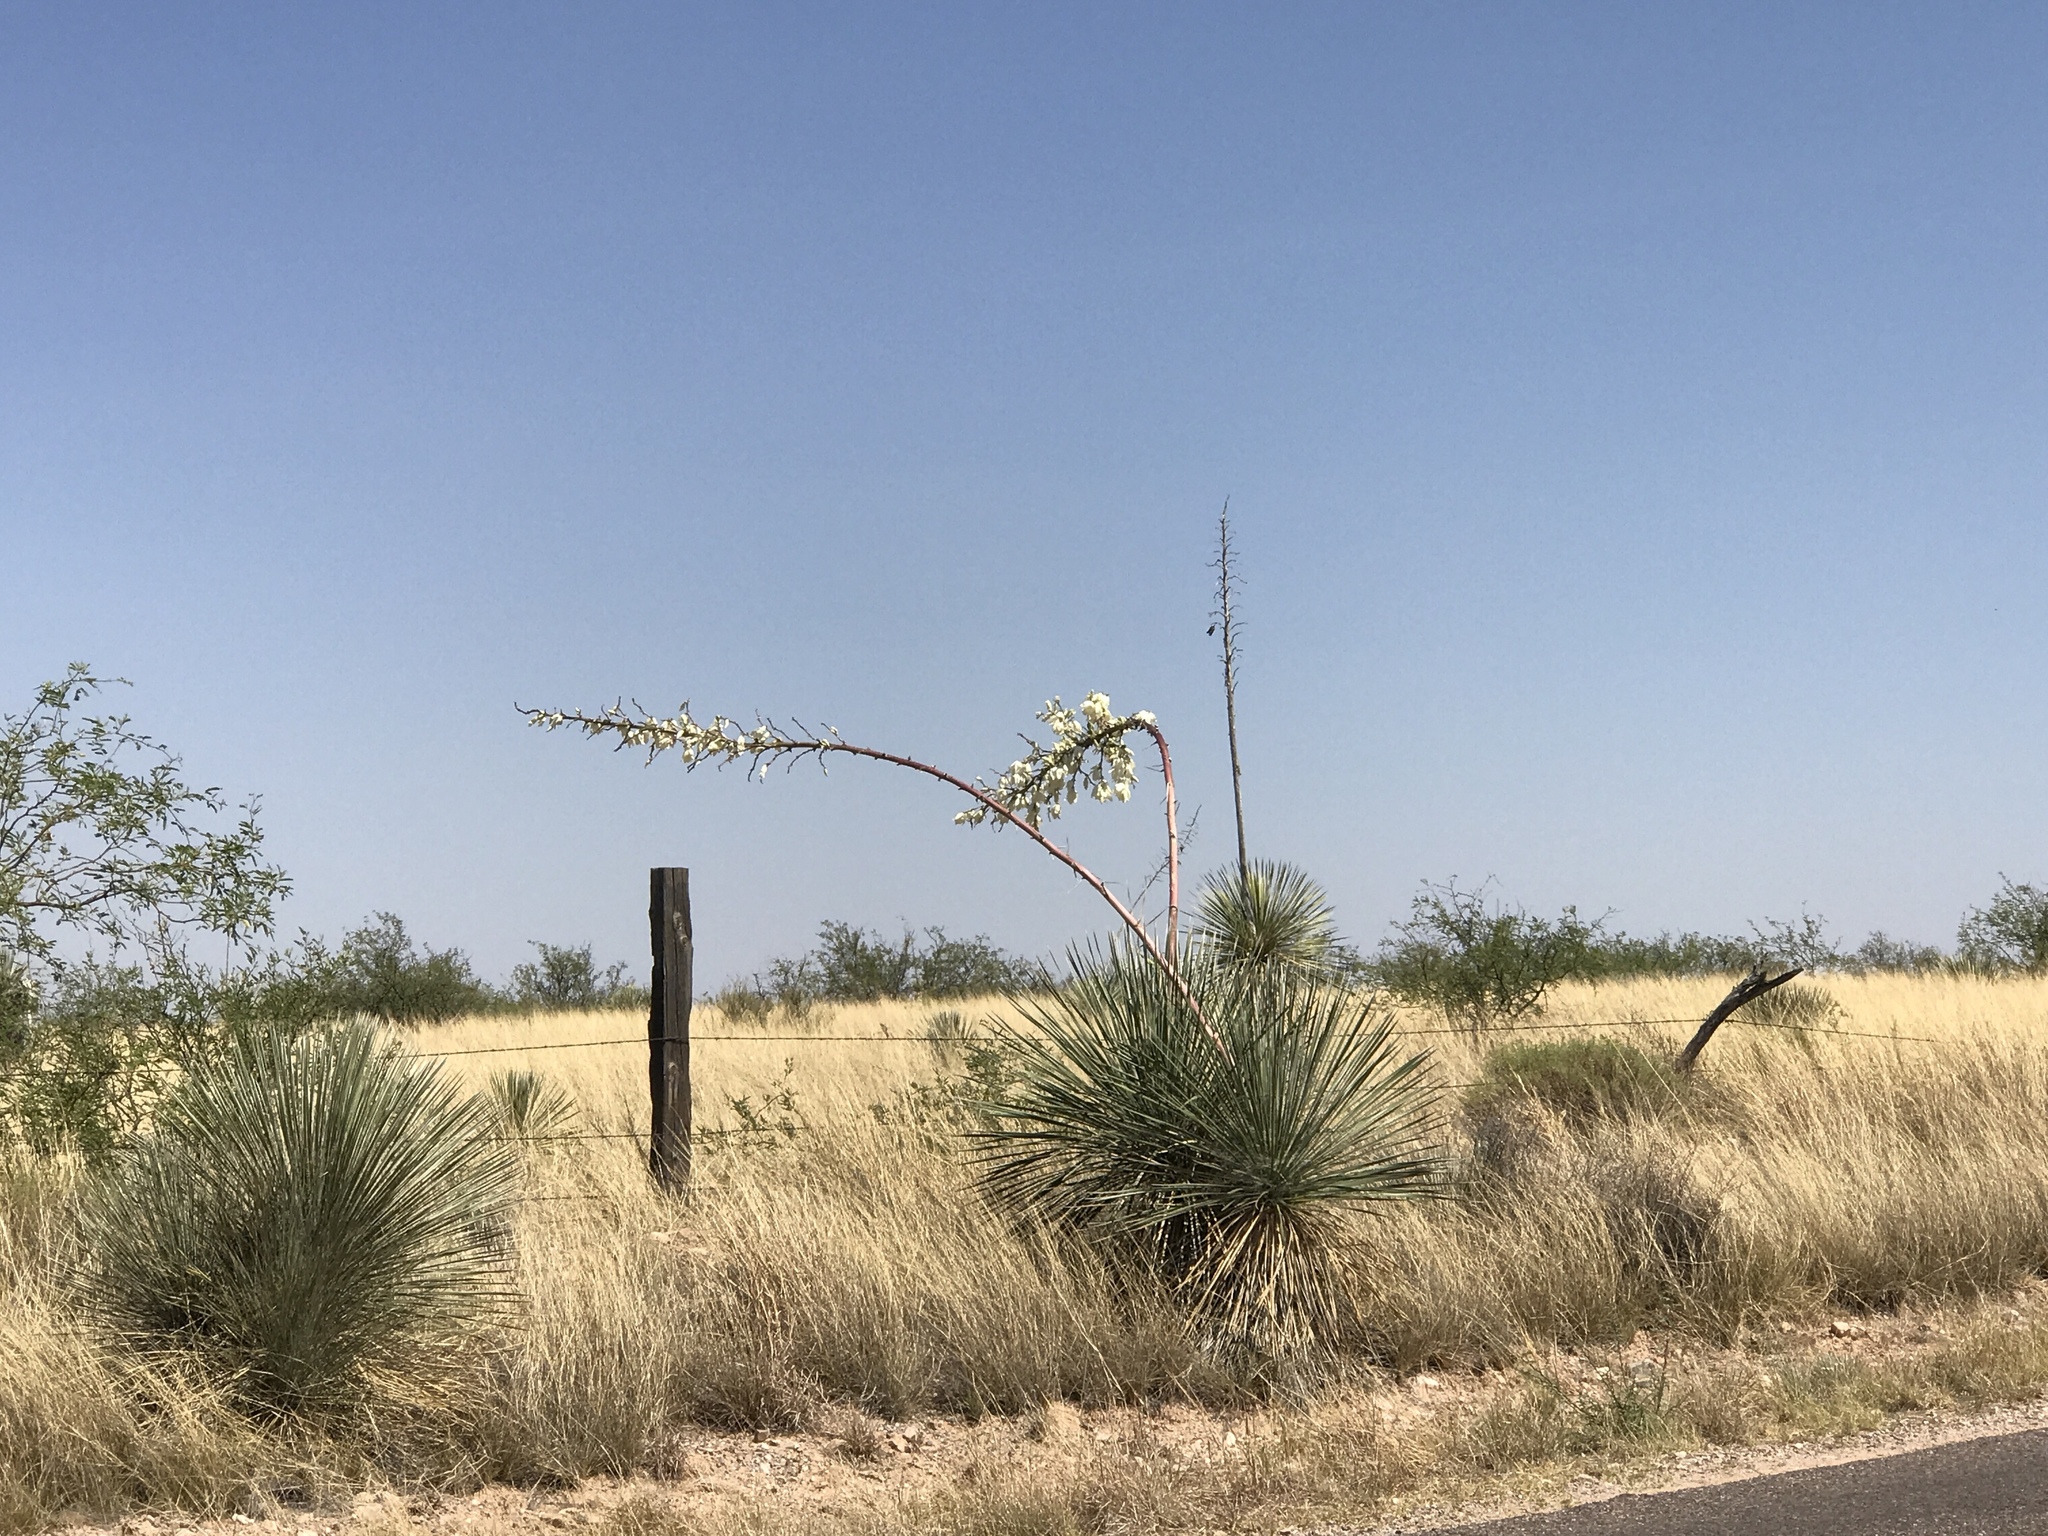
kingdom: Plantae
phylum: Tracheophyta
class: Liliopsida
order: Asparagales
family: Asparagaceae
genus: Yucca
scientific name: Yucca elata
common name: Palmella
